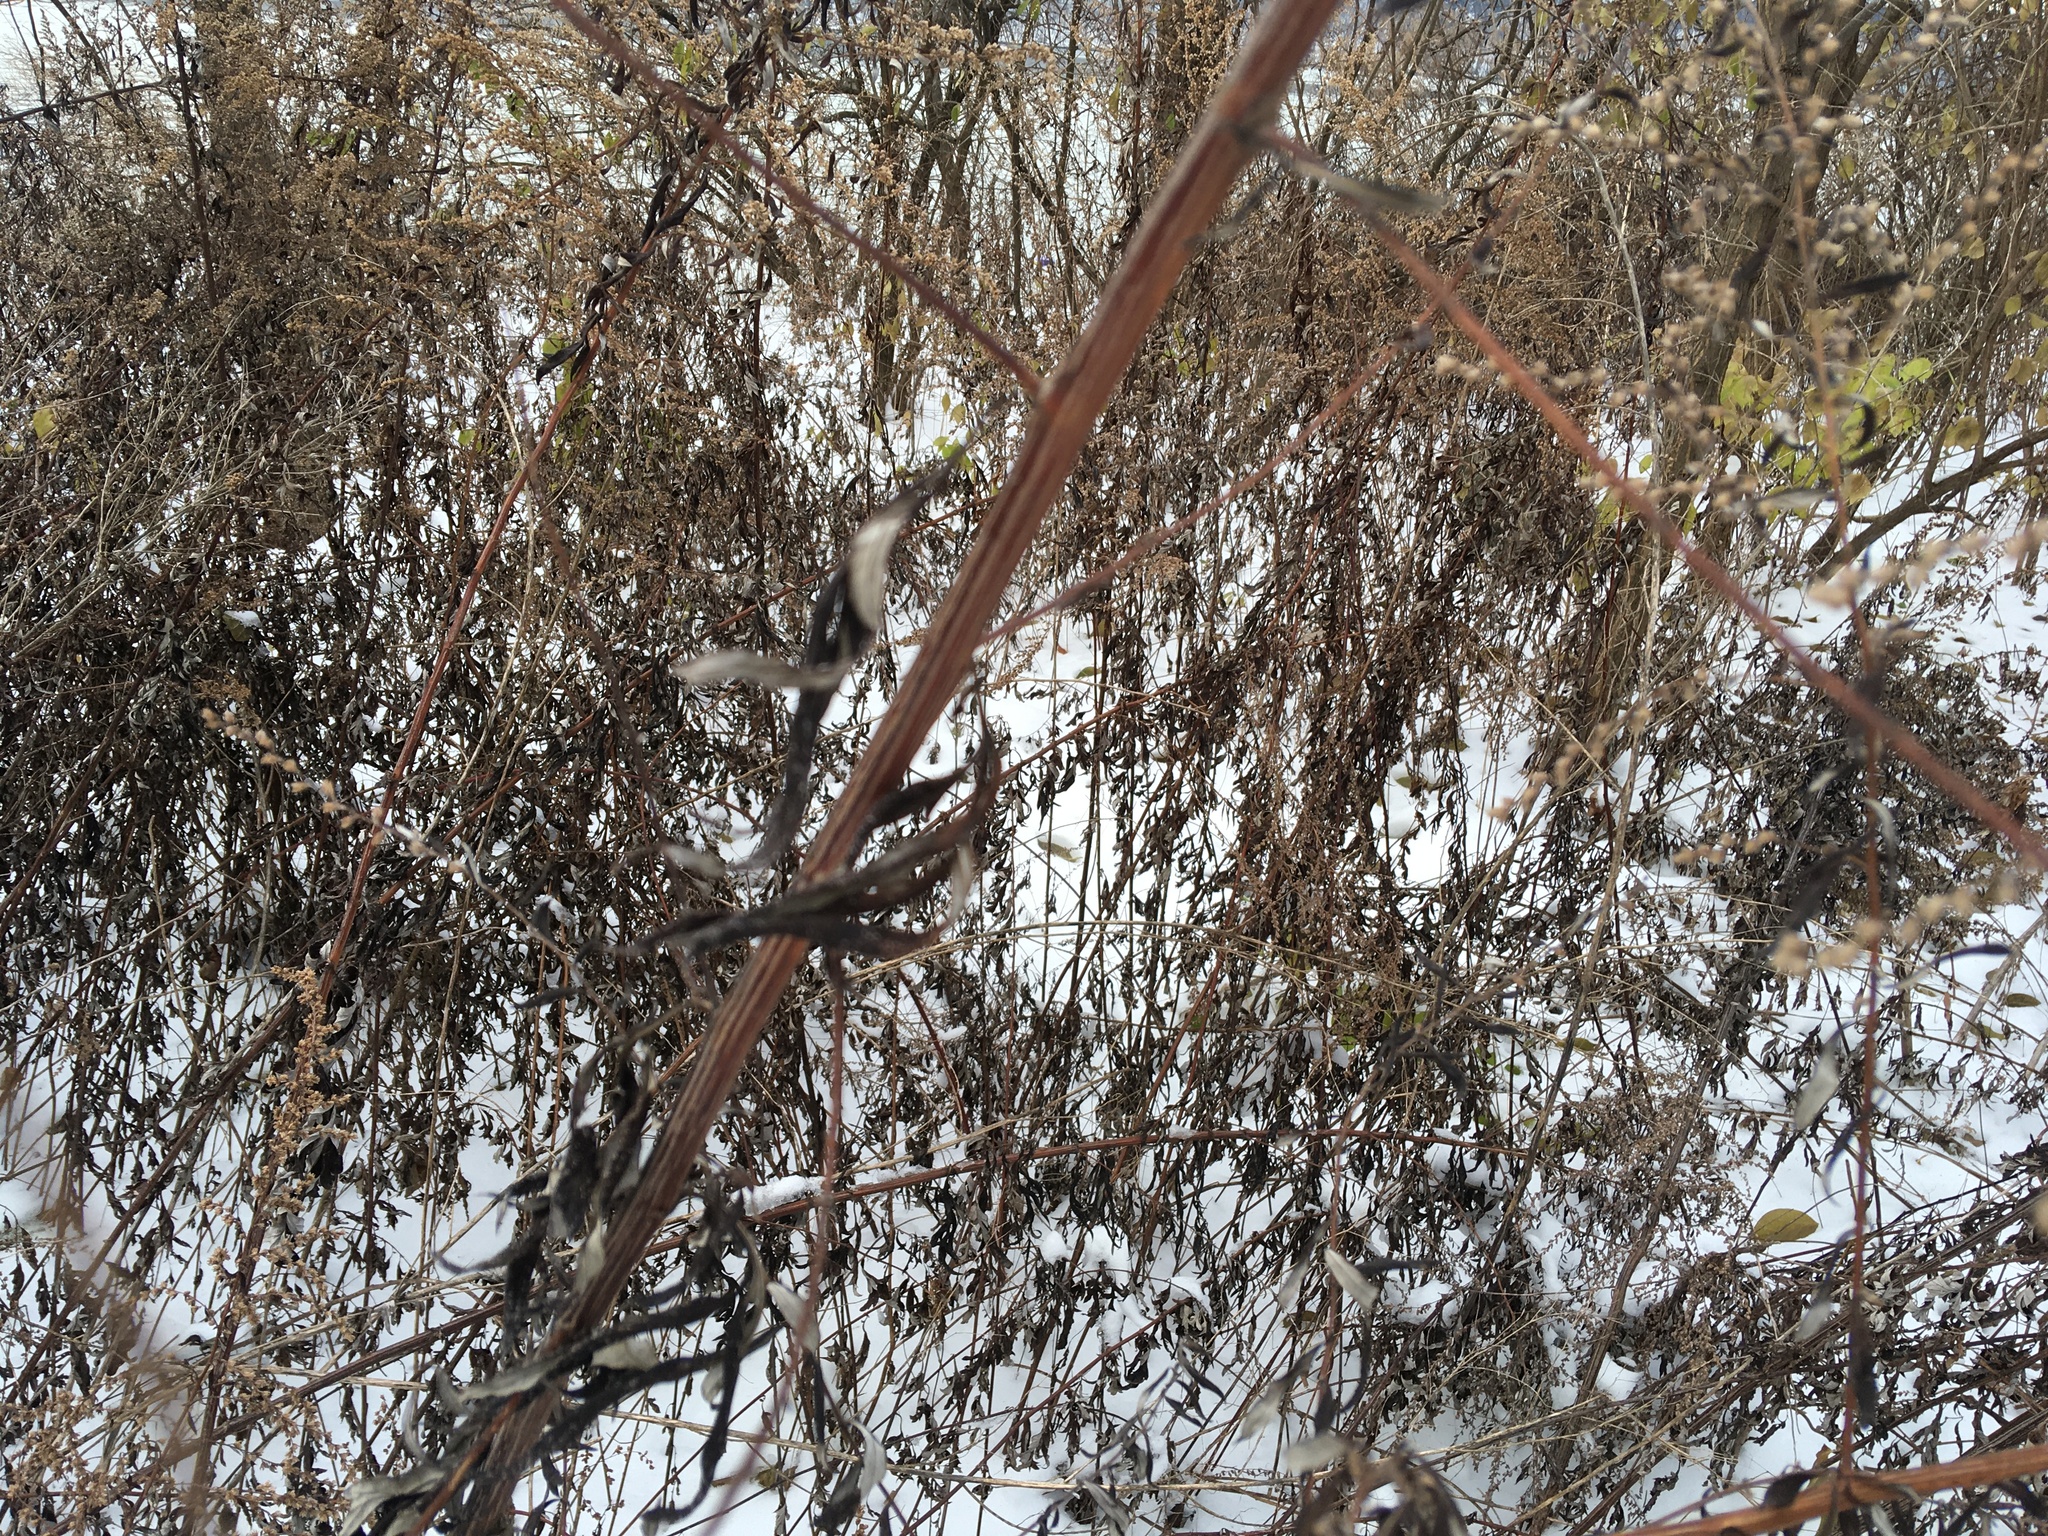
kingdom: Plantae
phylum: Tracheophyta
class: Magnoliopsida
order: Asterales
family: Asteraceae
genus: Artemisia
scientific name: Artemisia vulgaris
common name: Mugwort
